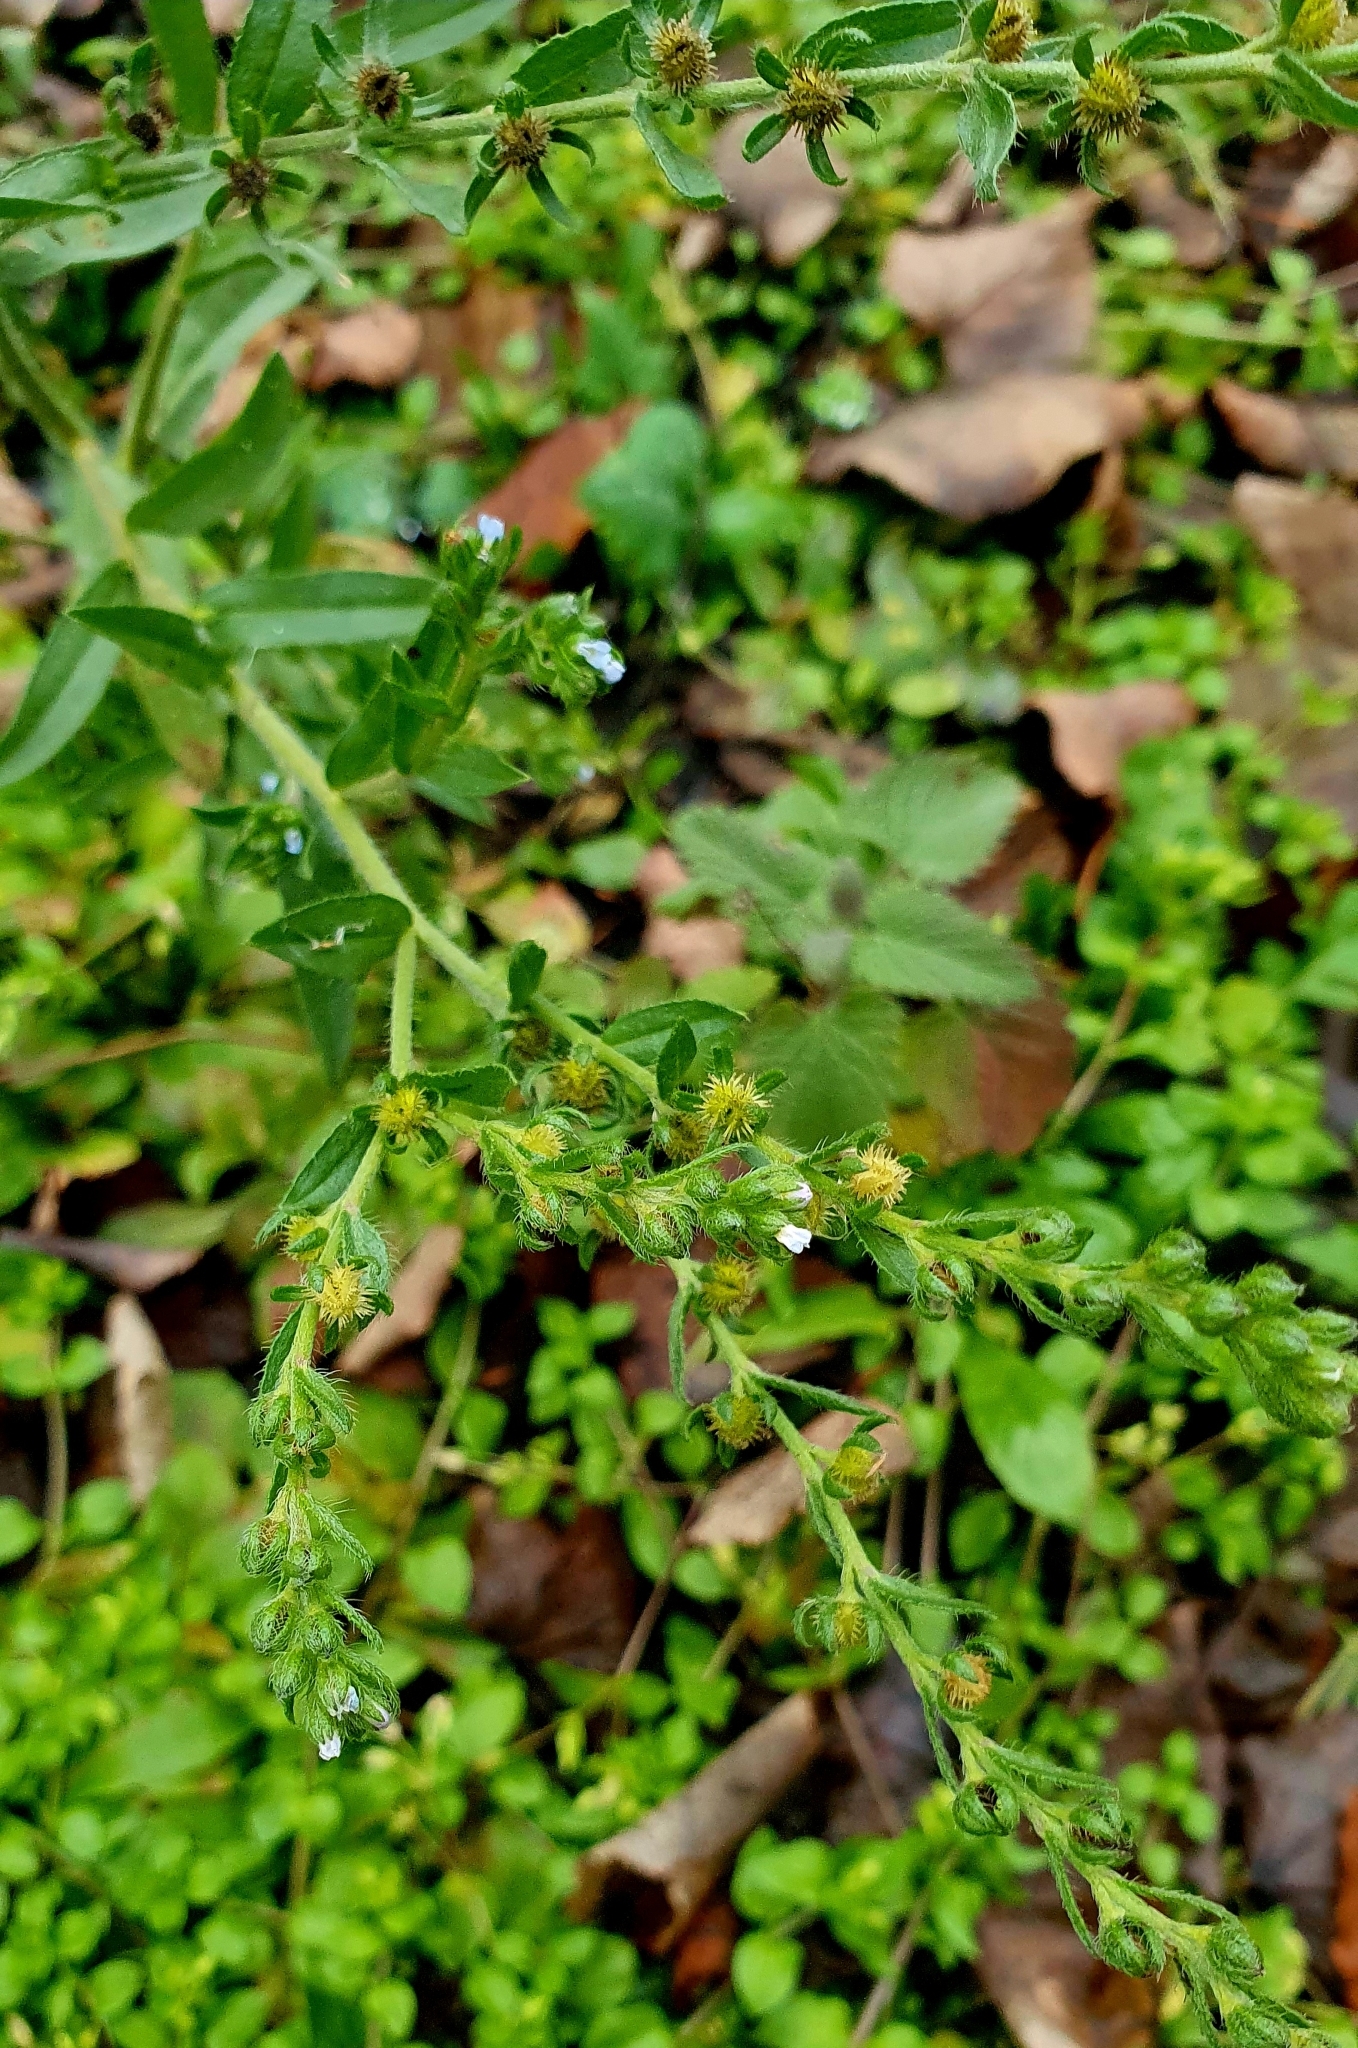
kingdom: Plantae
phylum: Tracheophyta
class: Magnoliopsida
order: Boraginales
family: Boraginaceae
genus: Lappula
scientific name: Lappula squarrosa
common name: European stickseed
